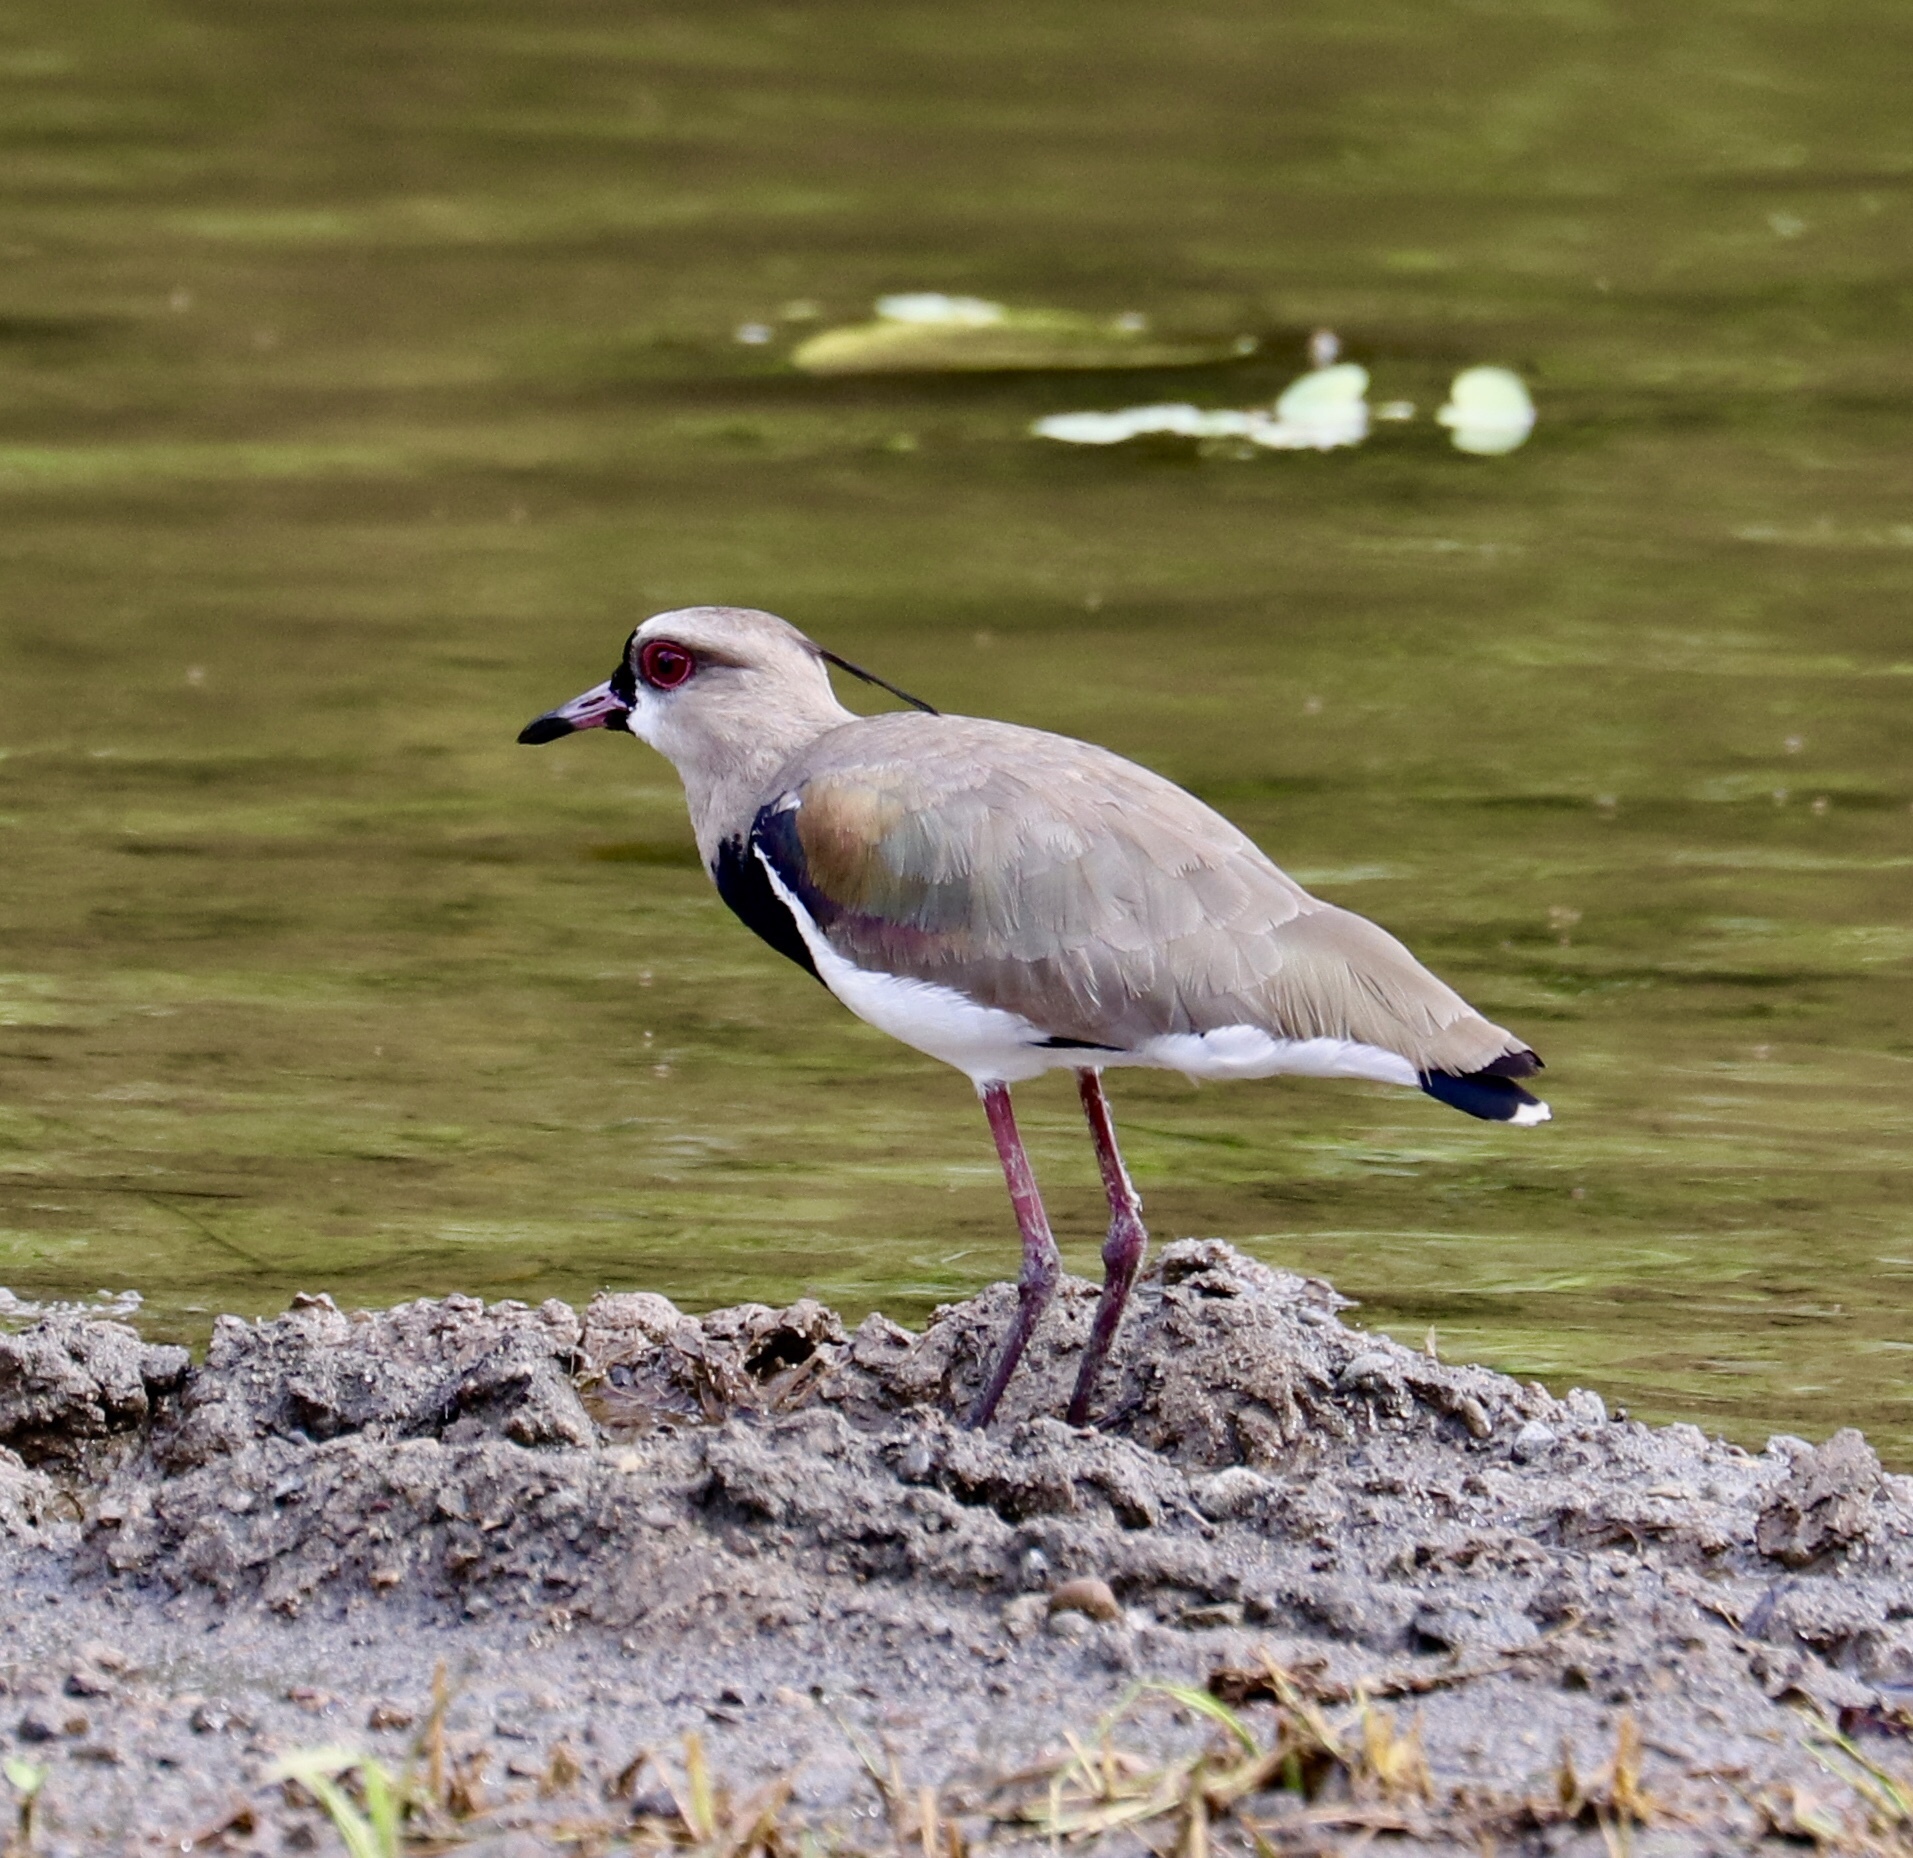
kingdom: Animalia
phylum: Chordata
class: Aves
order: Charadriiformes
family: Charadriidae
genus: Vanellus
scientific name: Vanellus chilensis
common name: Southern lapwing
